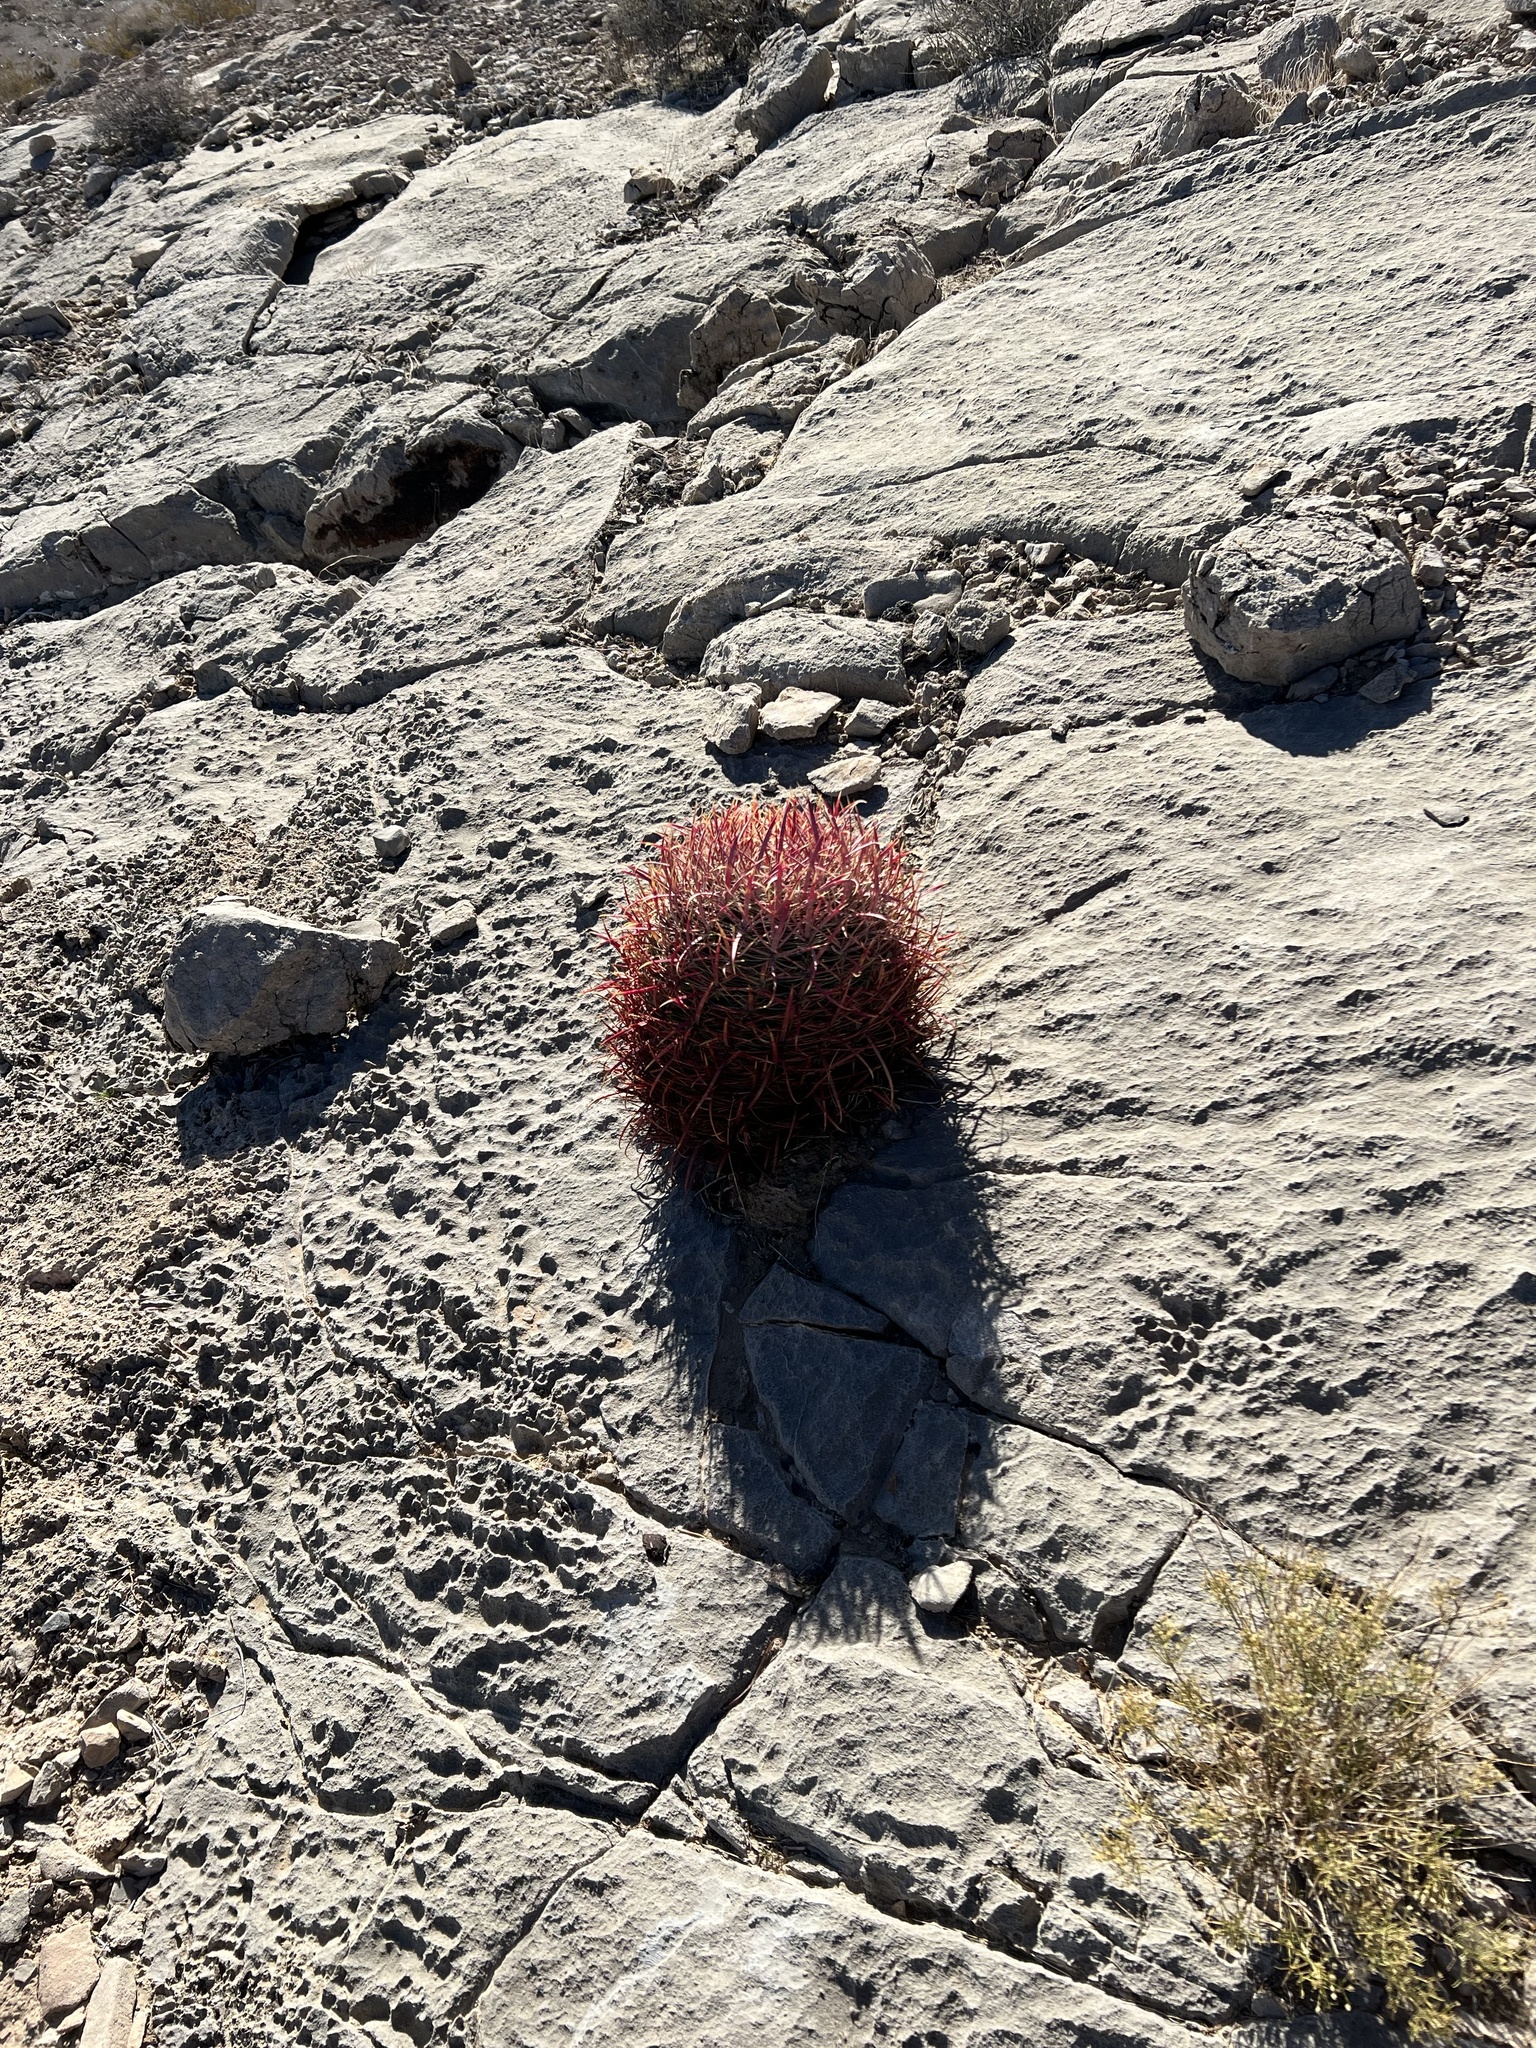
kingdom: Plantae
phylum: Tracheophyta
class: Magnoliopsida
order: Caryophyllales
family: Cactaceae
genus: Ferocactus
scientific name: Ferocactus cylindraceus
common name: California barrel cactus
